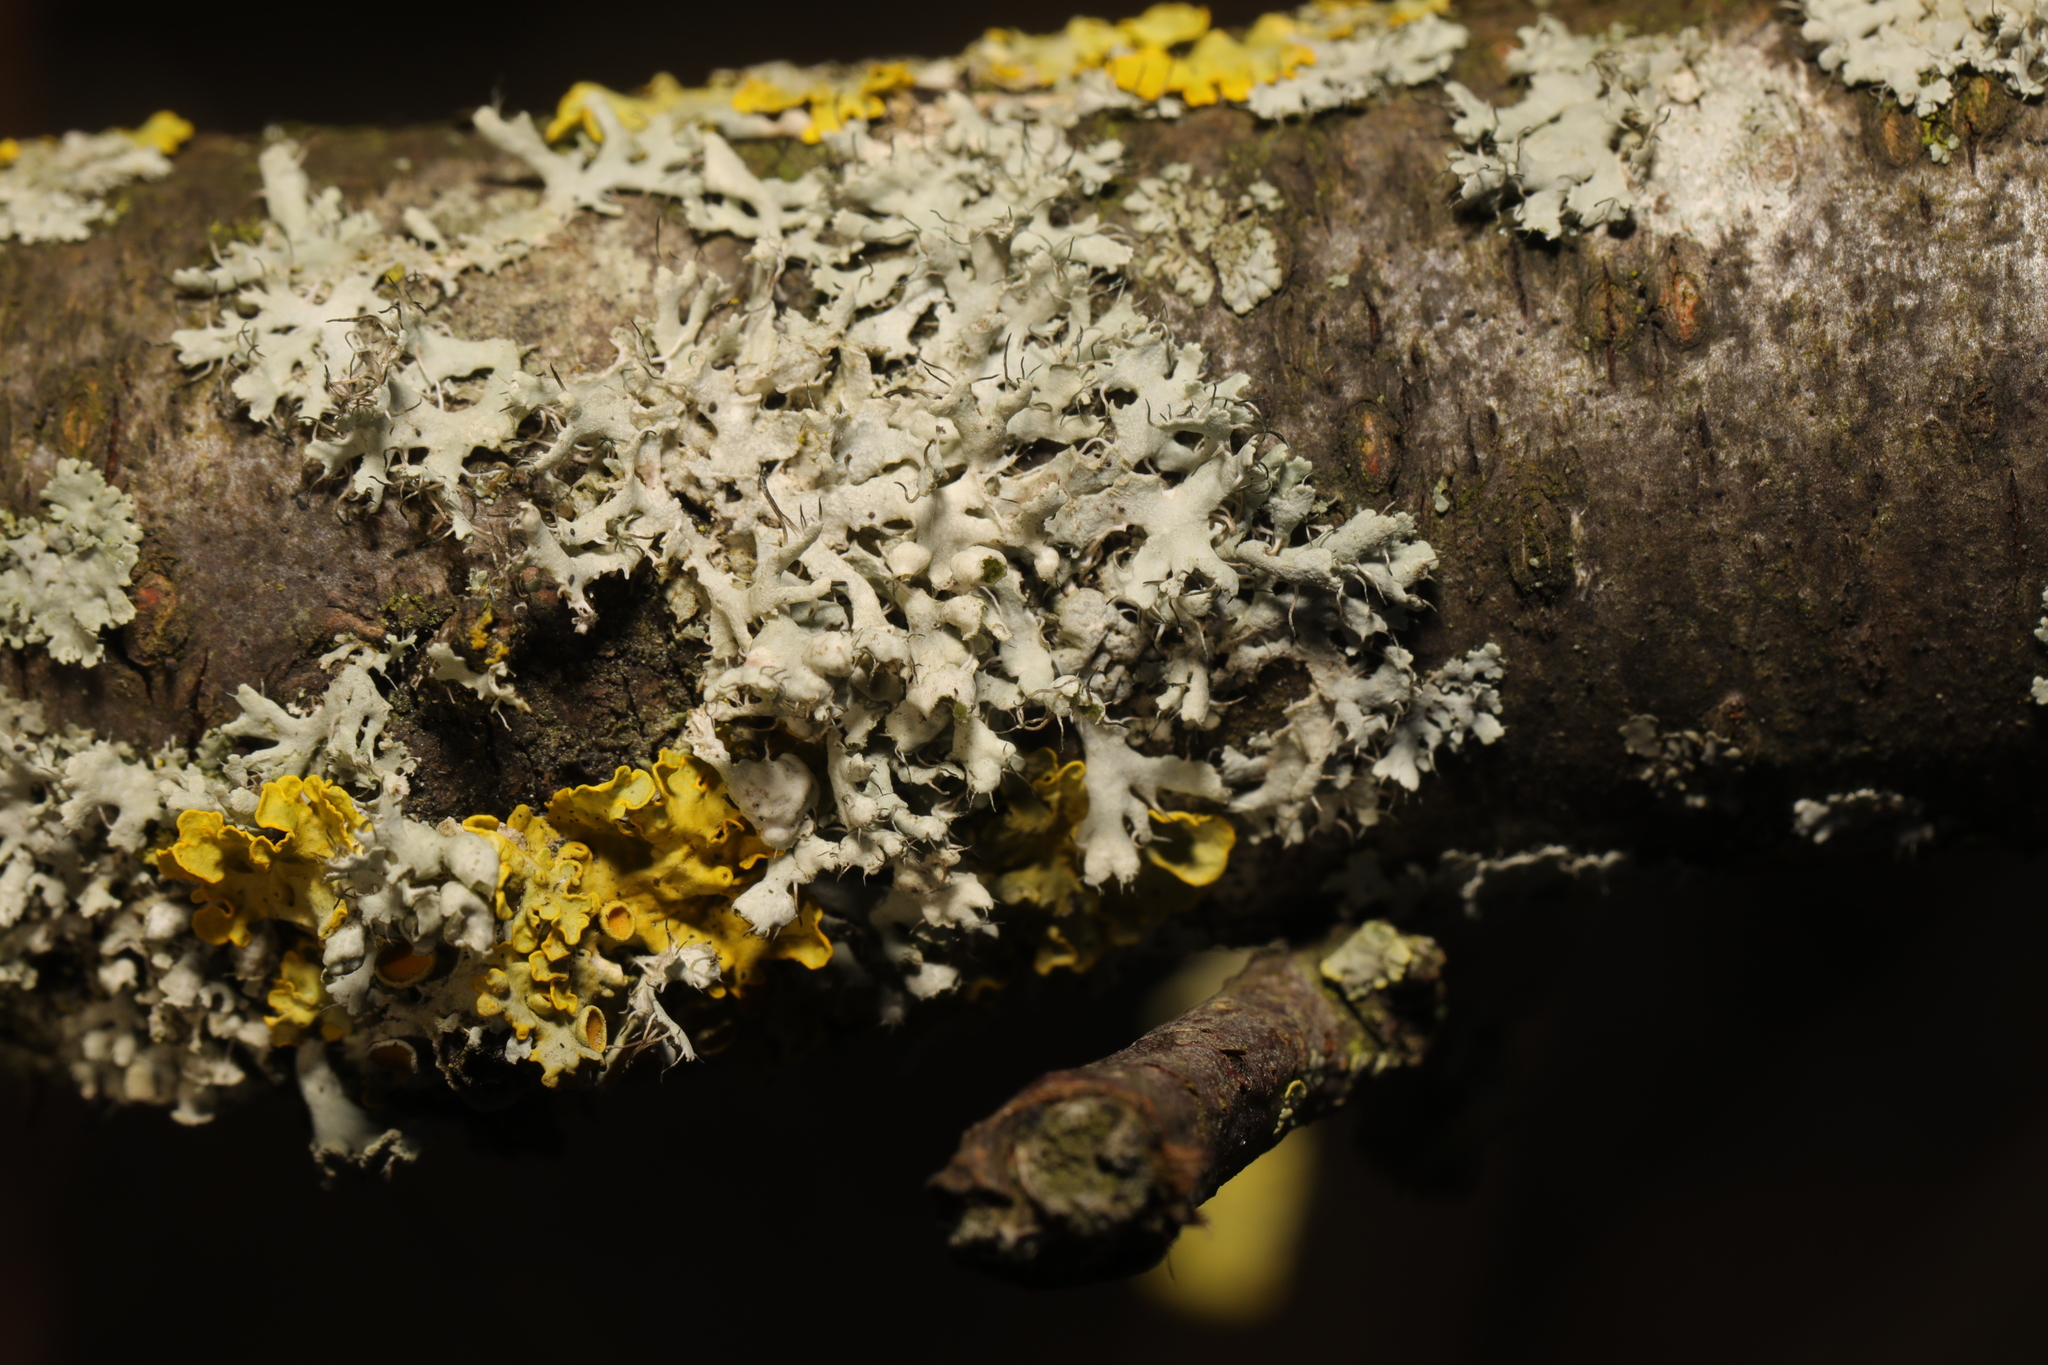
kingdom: Fungi
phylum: Ascomycota
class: Lecanoromycetes
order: Caliciales
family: Physciaceae
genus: Physcia
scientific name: Physcia adscendens
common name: Hooded rosette lichen
